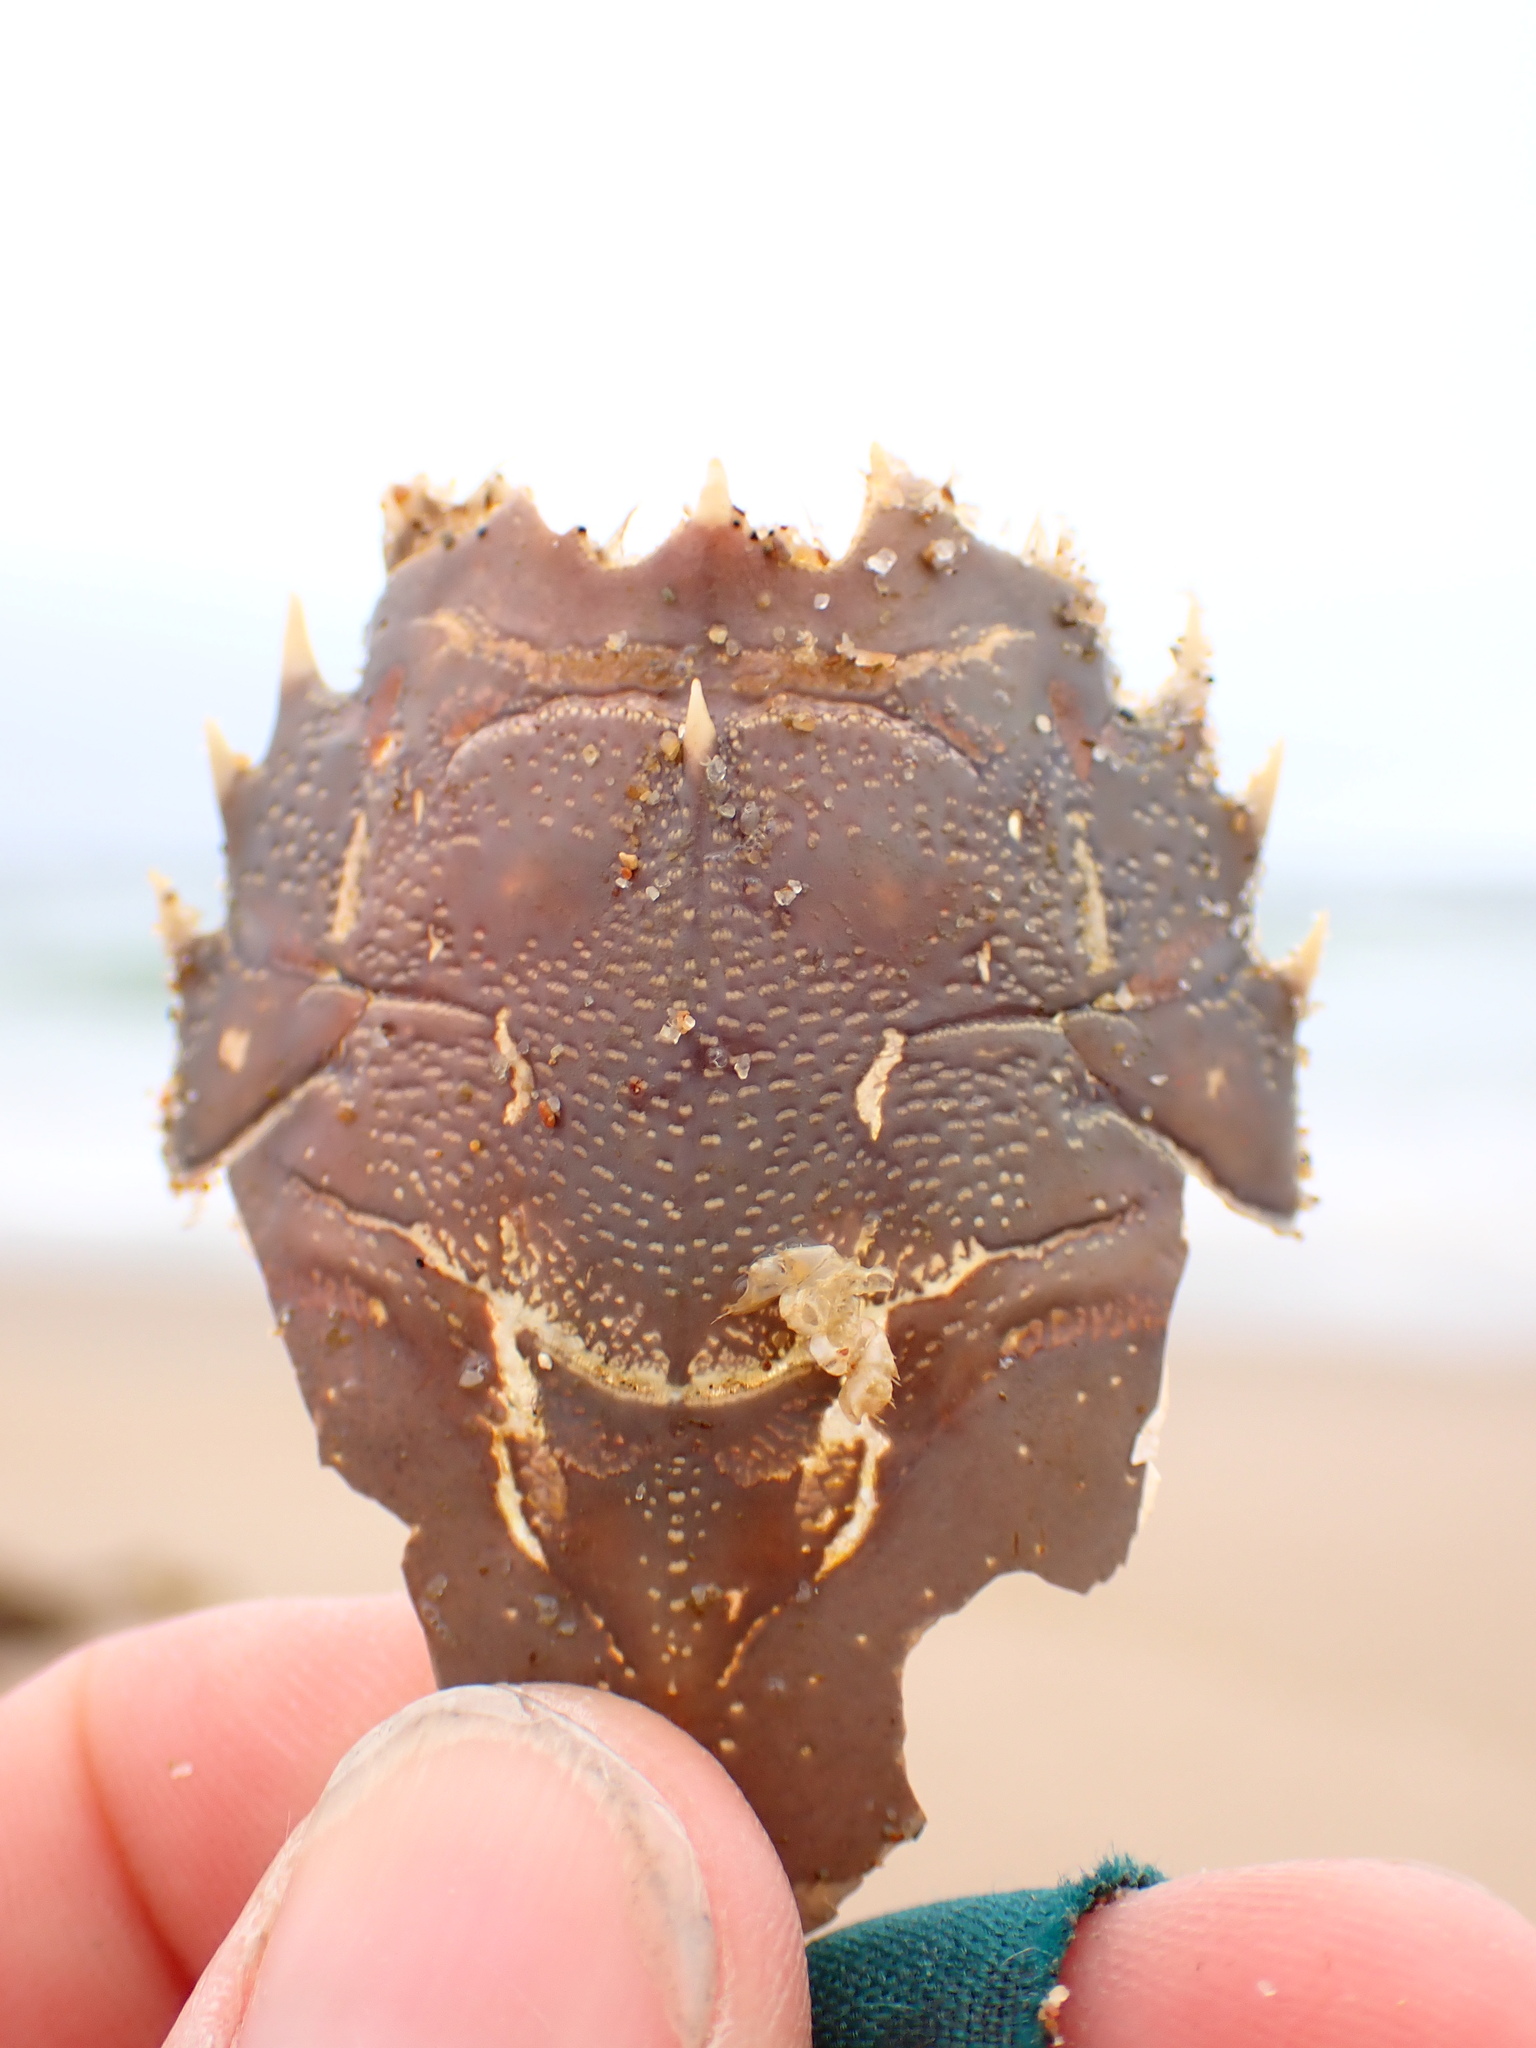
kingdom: Animalia
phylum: Arthropoda
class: Malacostraca
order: Decapoda
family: Blepharipodidae
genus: Blepharipoda
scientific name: Blepharipoda occidentalis
